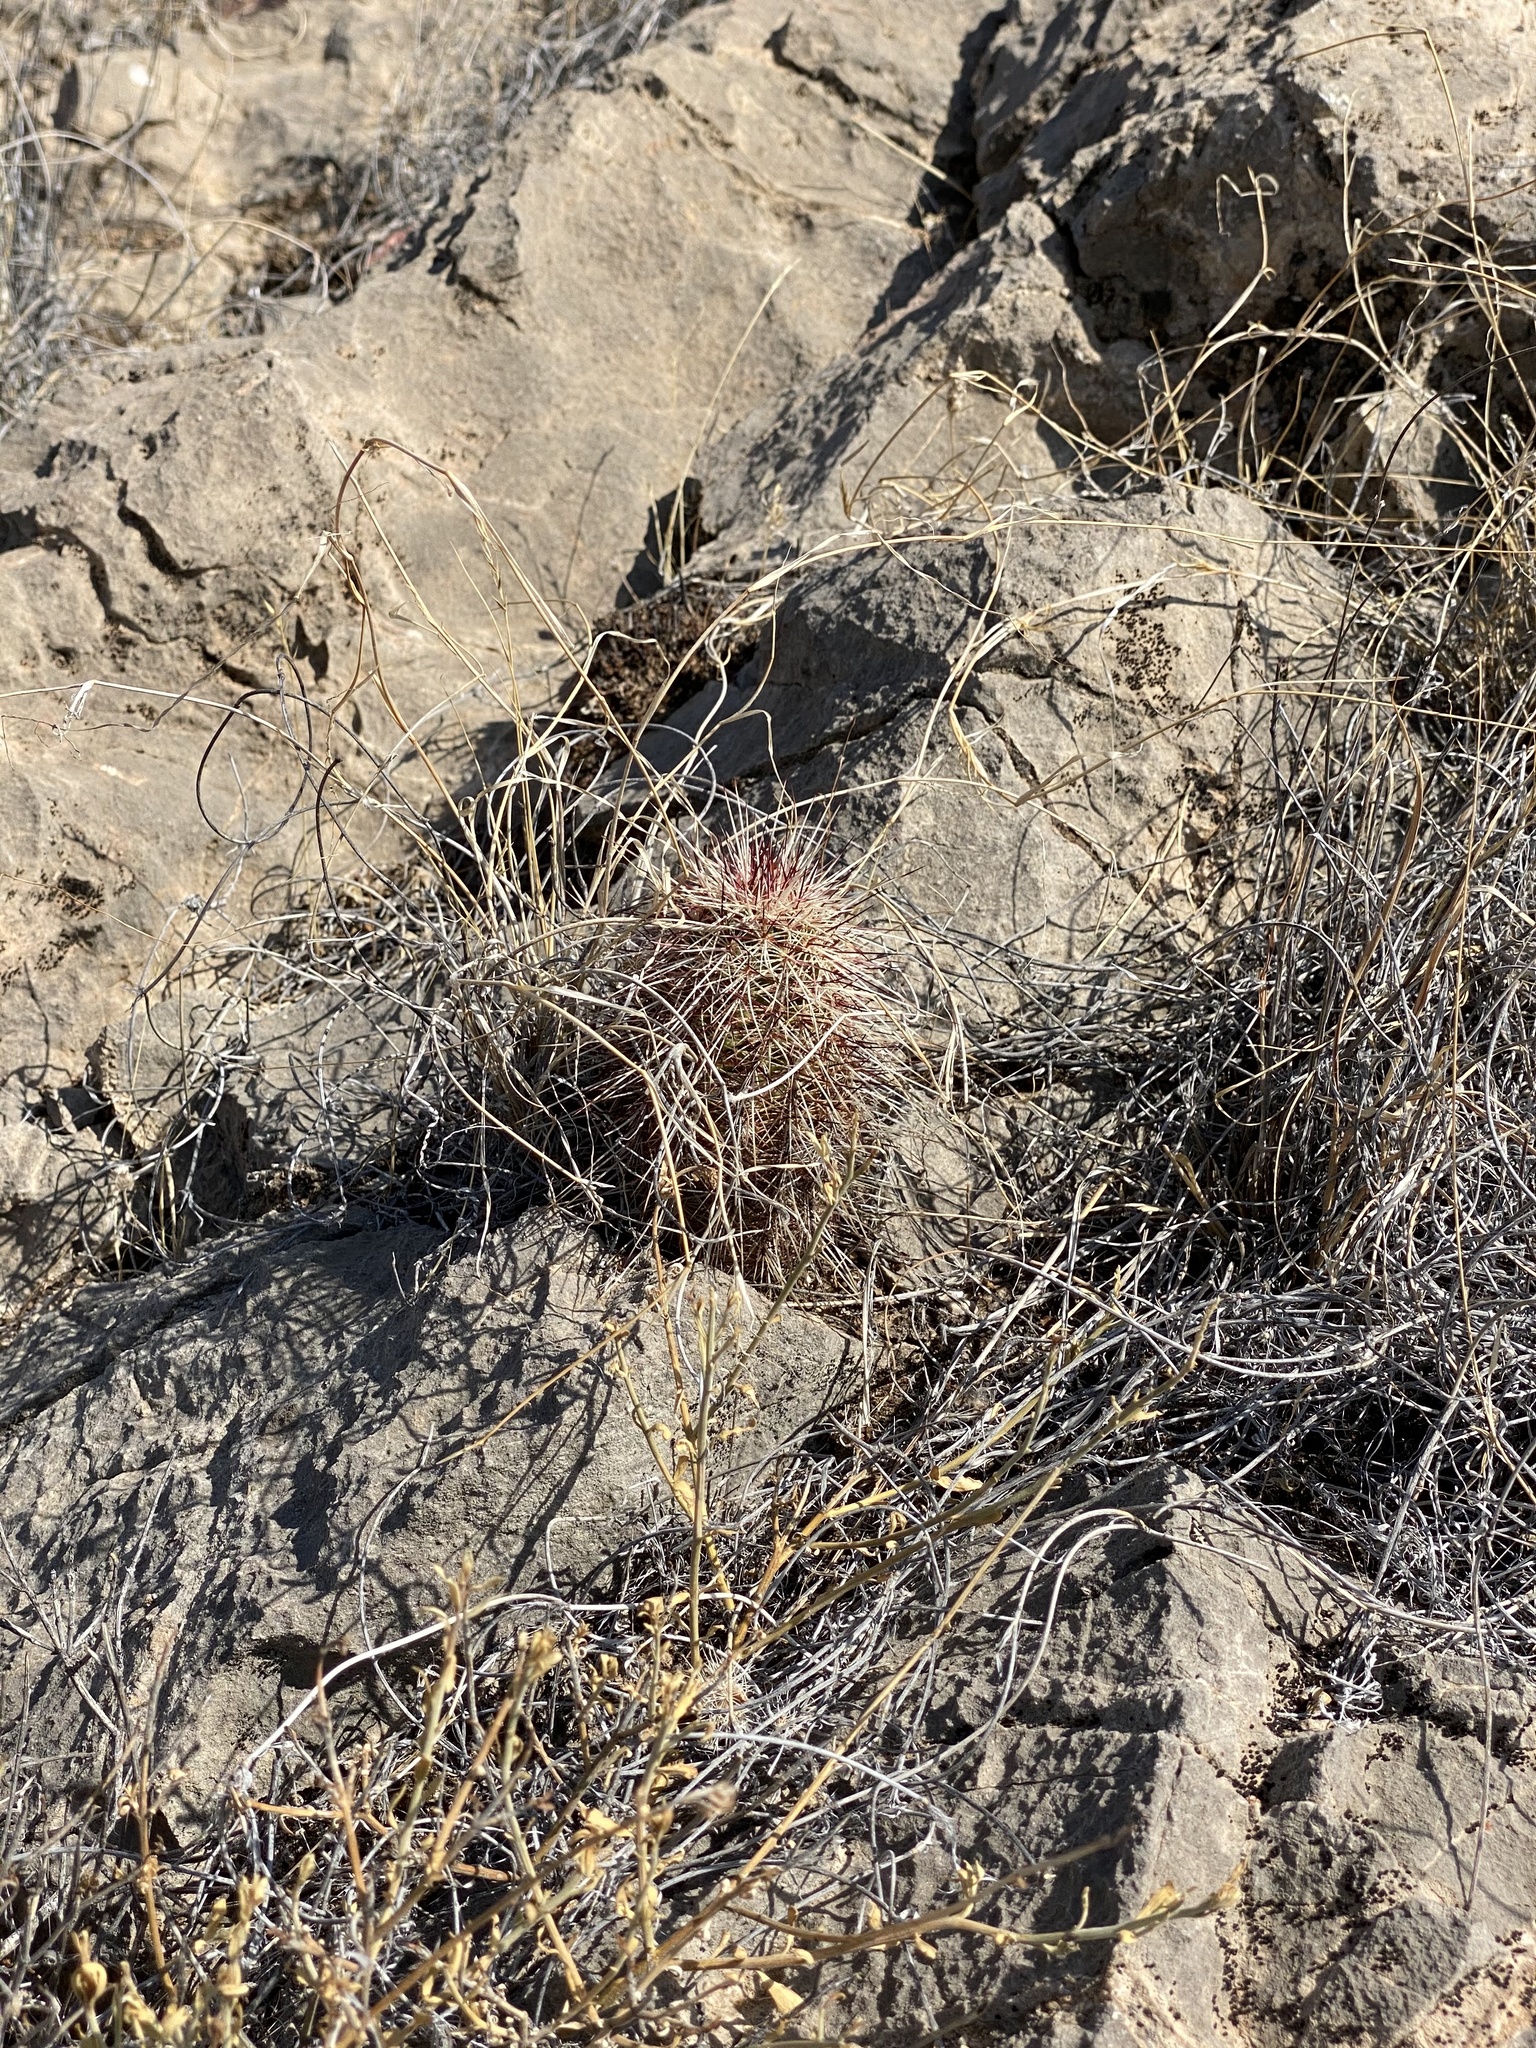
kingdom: Plantae
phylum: Tracheophyta
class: Magnoliopsida
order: Caryophyllales
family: Cactaceae
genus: Echinocereus
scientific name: Echinocereus viridiflorus
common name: Nylon hedgehog cactus
